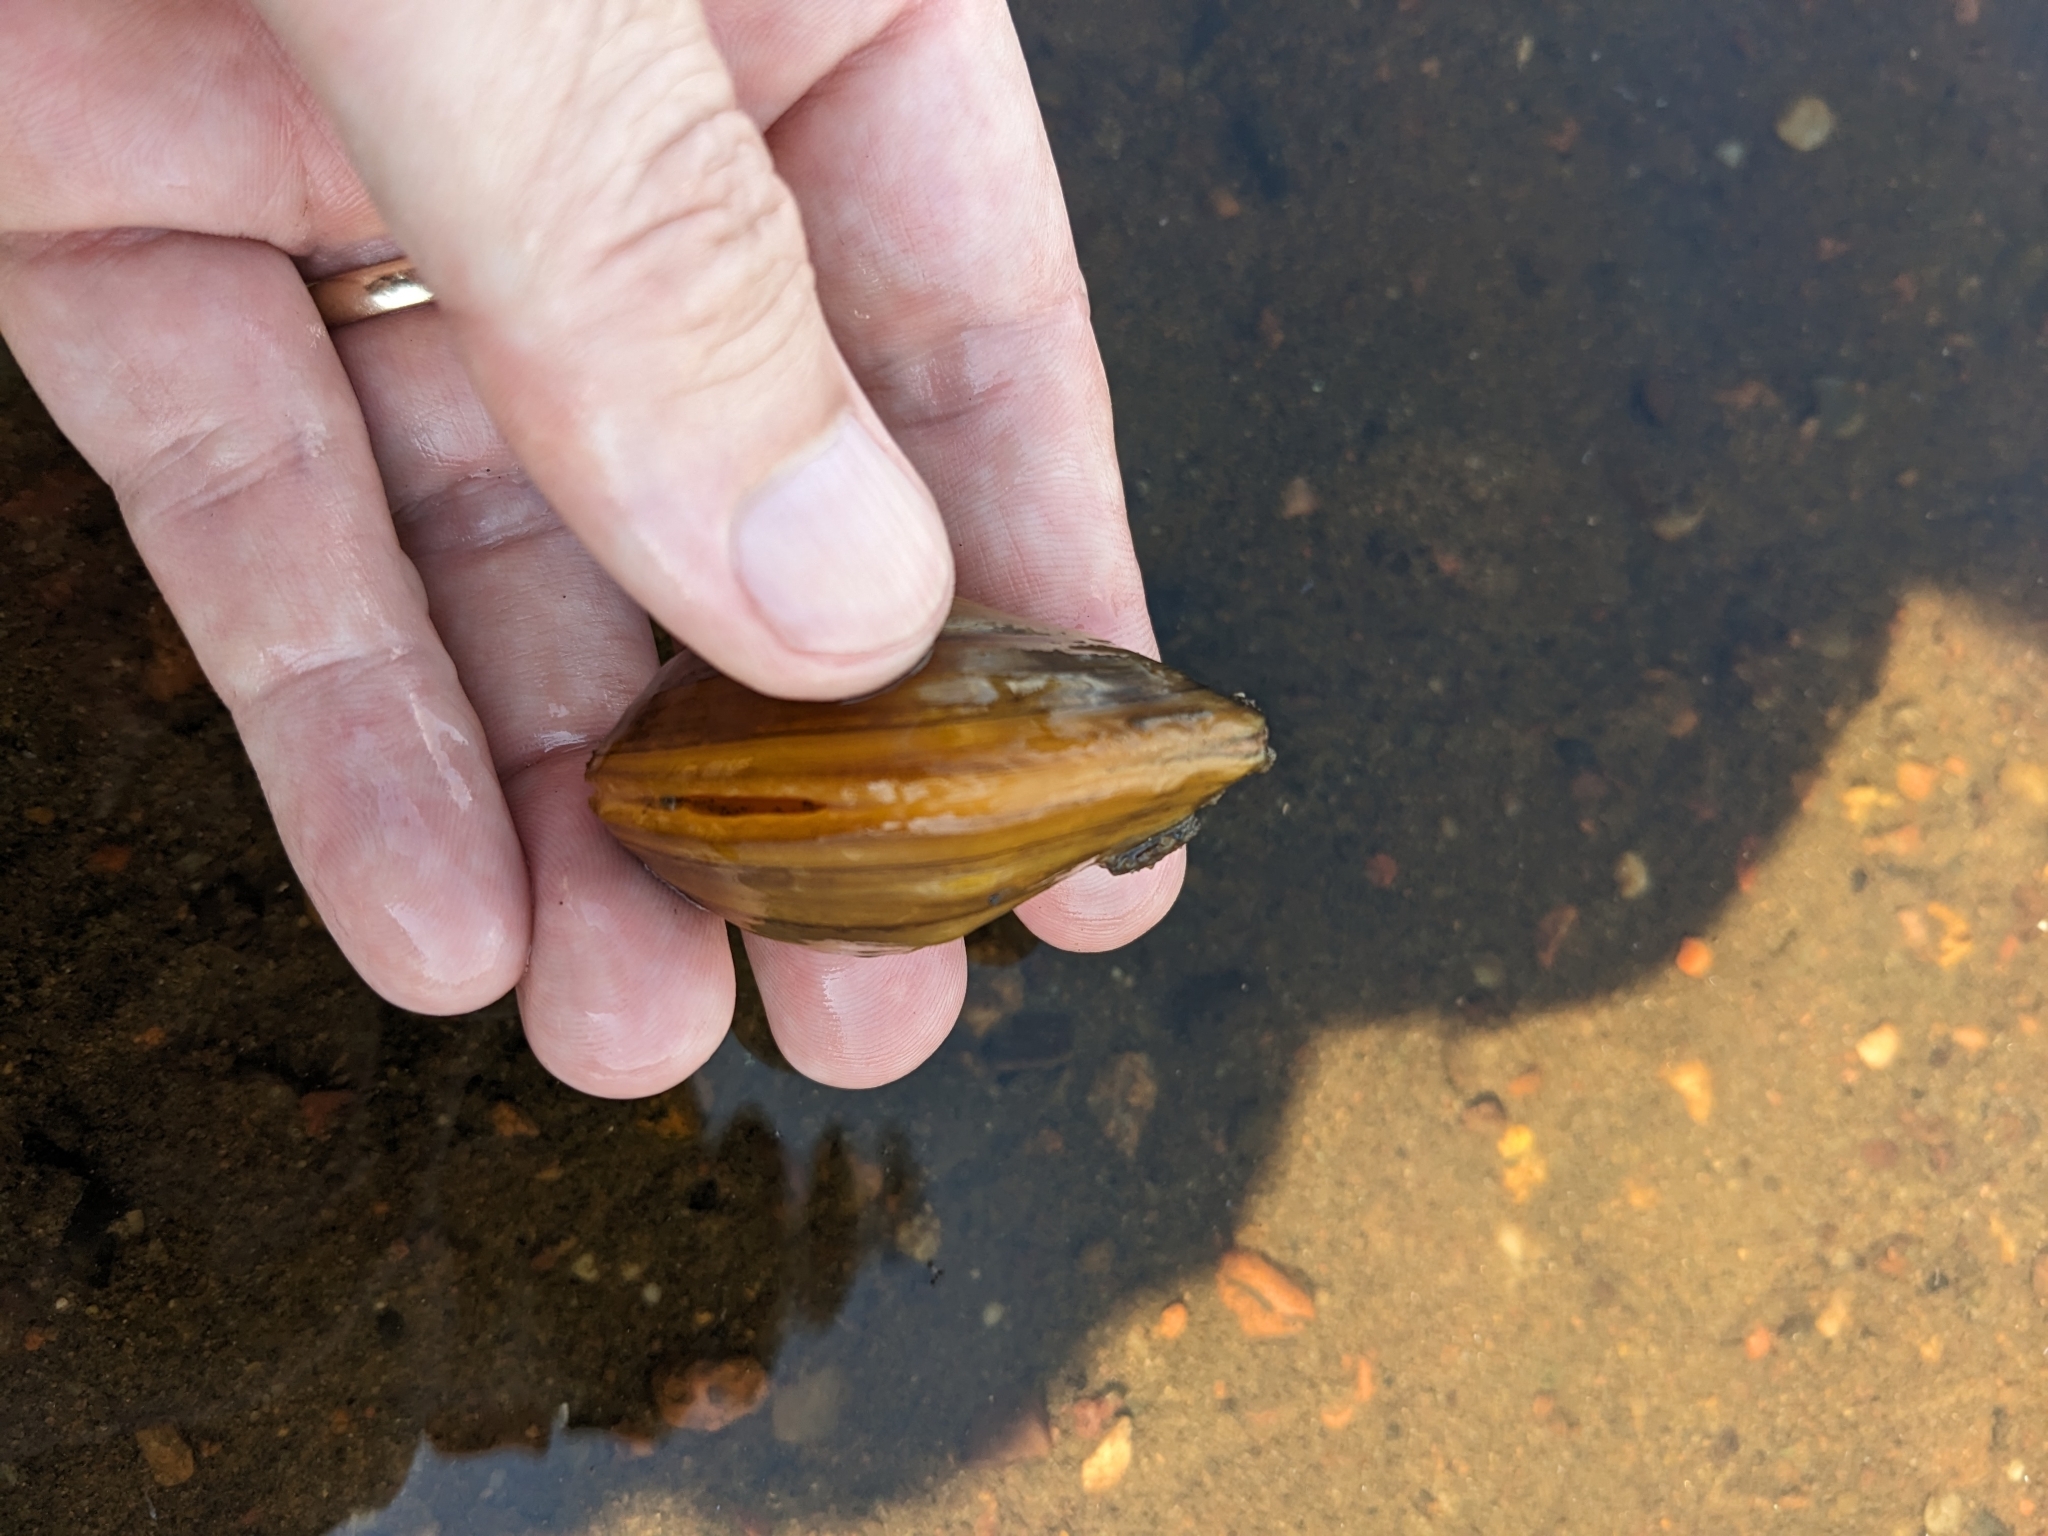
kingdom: Animalia
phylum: Mollusca
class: Bivalvia
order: Unionida
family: Unionidae
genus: Plethobasus
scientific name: Plethobasus cyphyus
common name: Sheepnose
